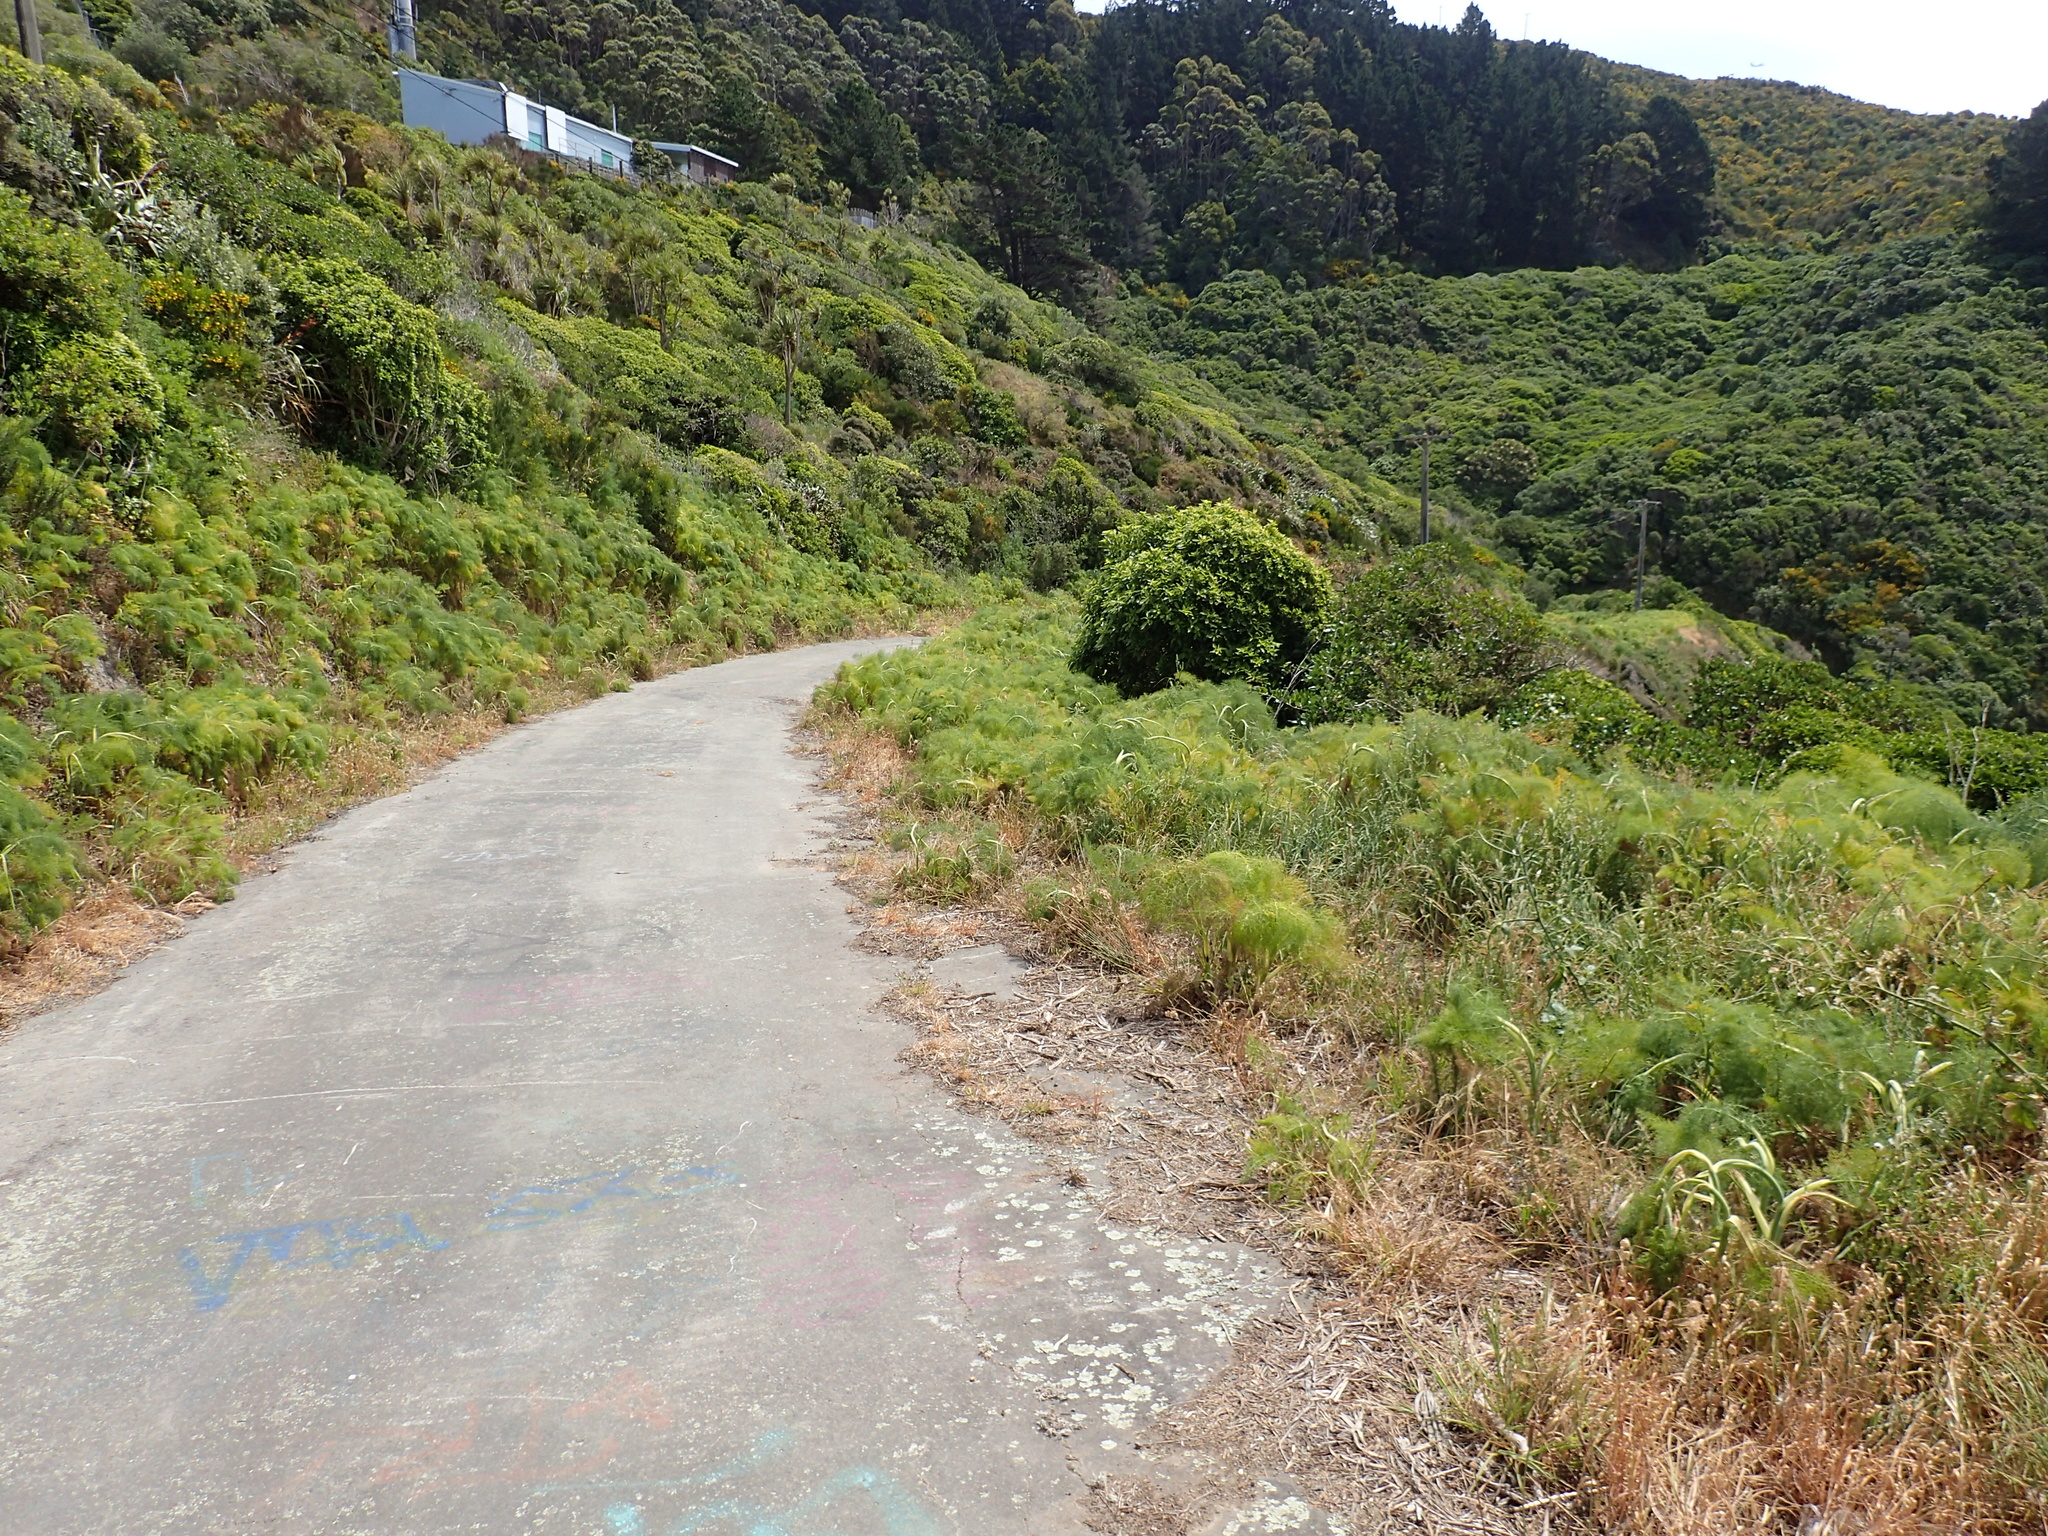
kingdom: Plantae
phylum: Tracheophyta
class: Magnoliopsida
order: Apiales
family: Apiaceae
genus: Foeniculum
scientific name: Foeniculum vulgare
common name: Fennel
